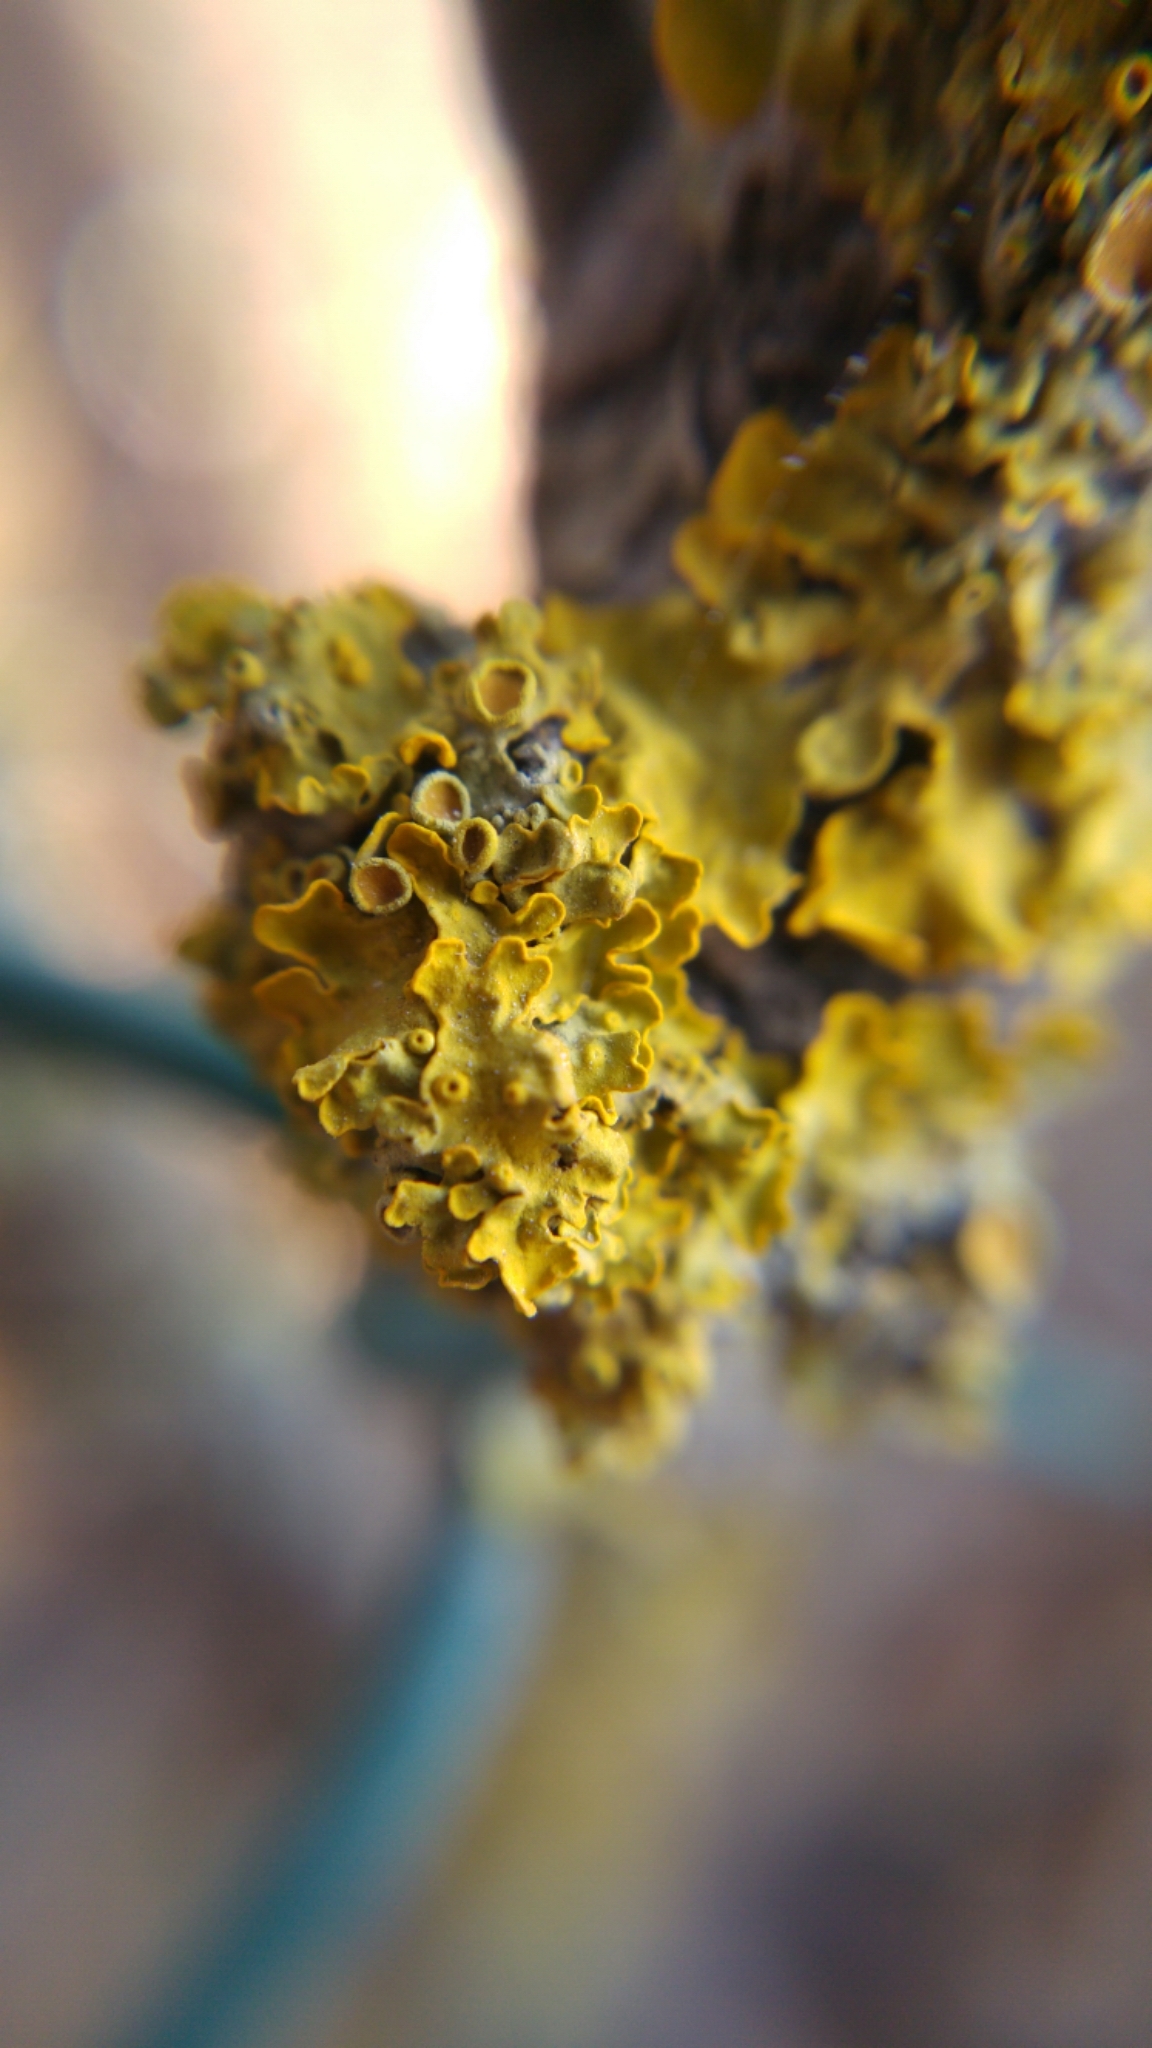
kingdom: Fungi
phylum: Ascomycota
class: Lecanoromycetes
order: Teloschistales
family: Teloschistaceae
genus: Xanthoria
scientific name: Xanthoria parietina
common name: Common orange lichen
